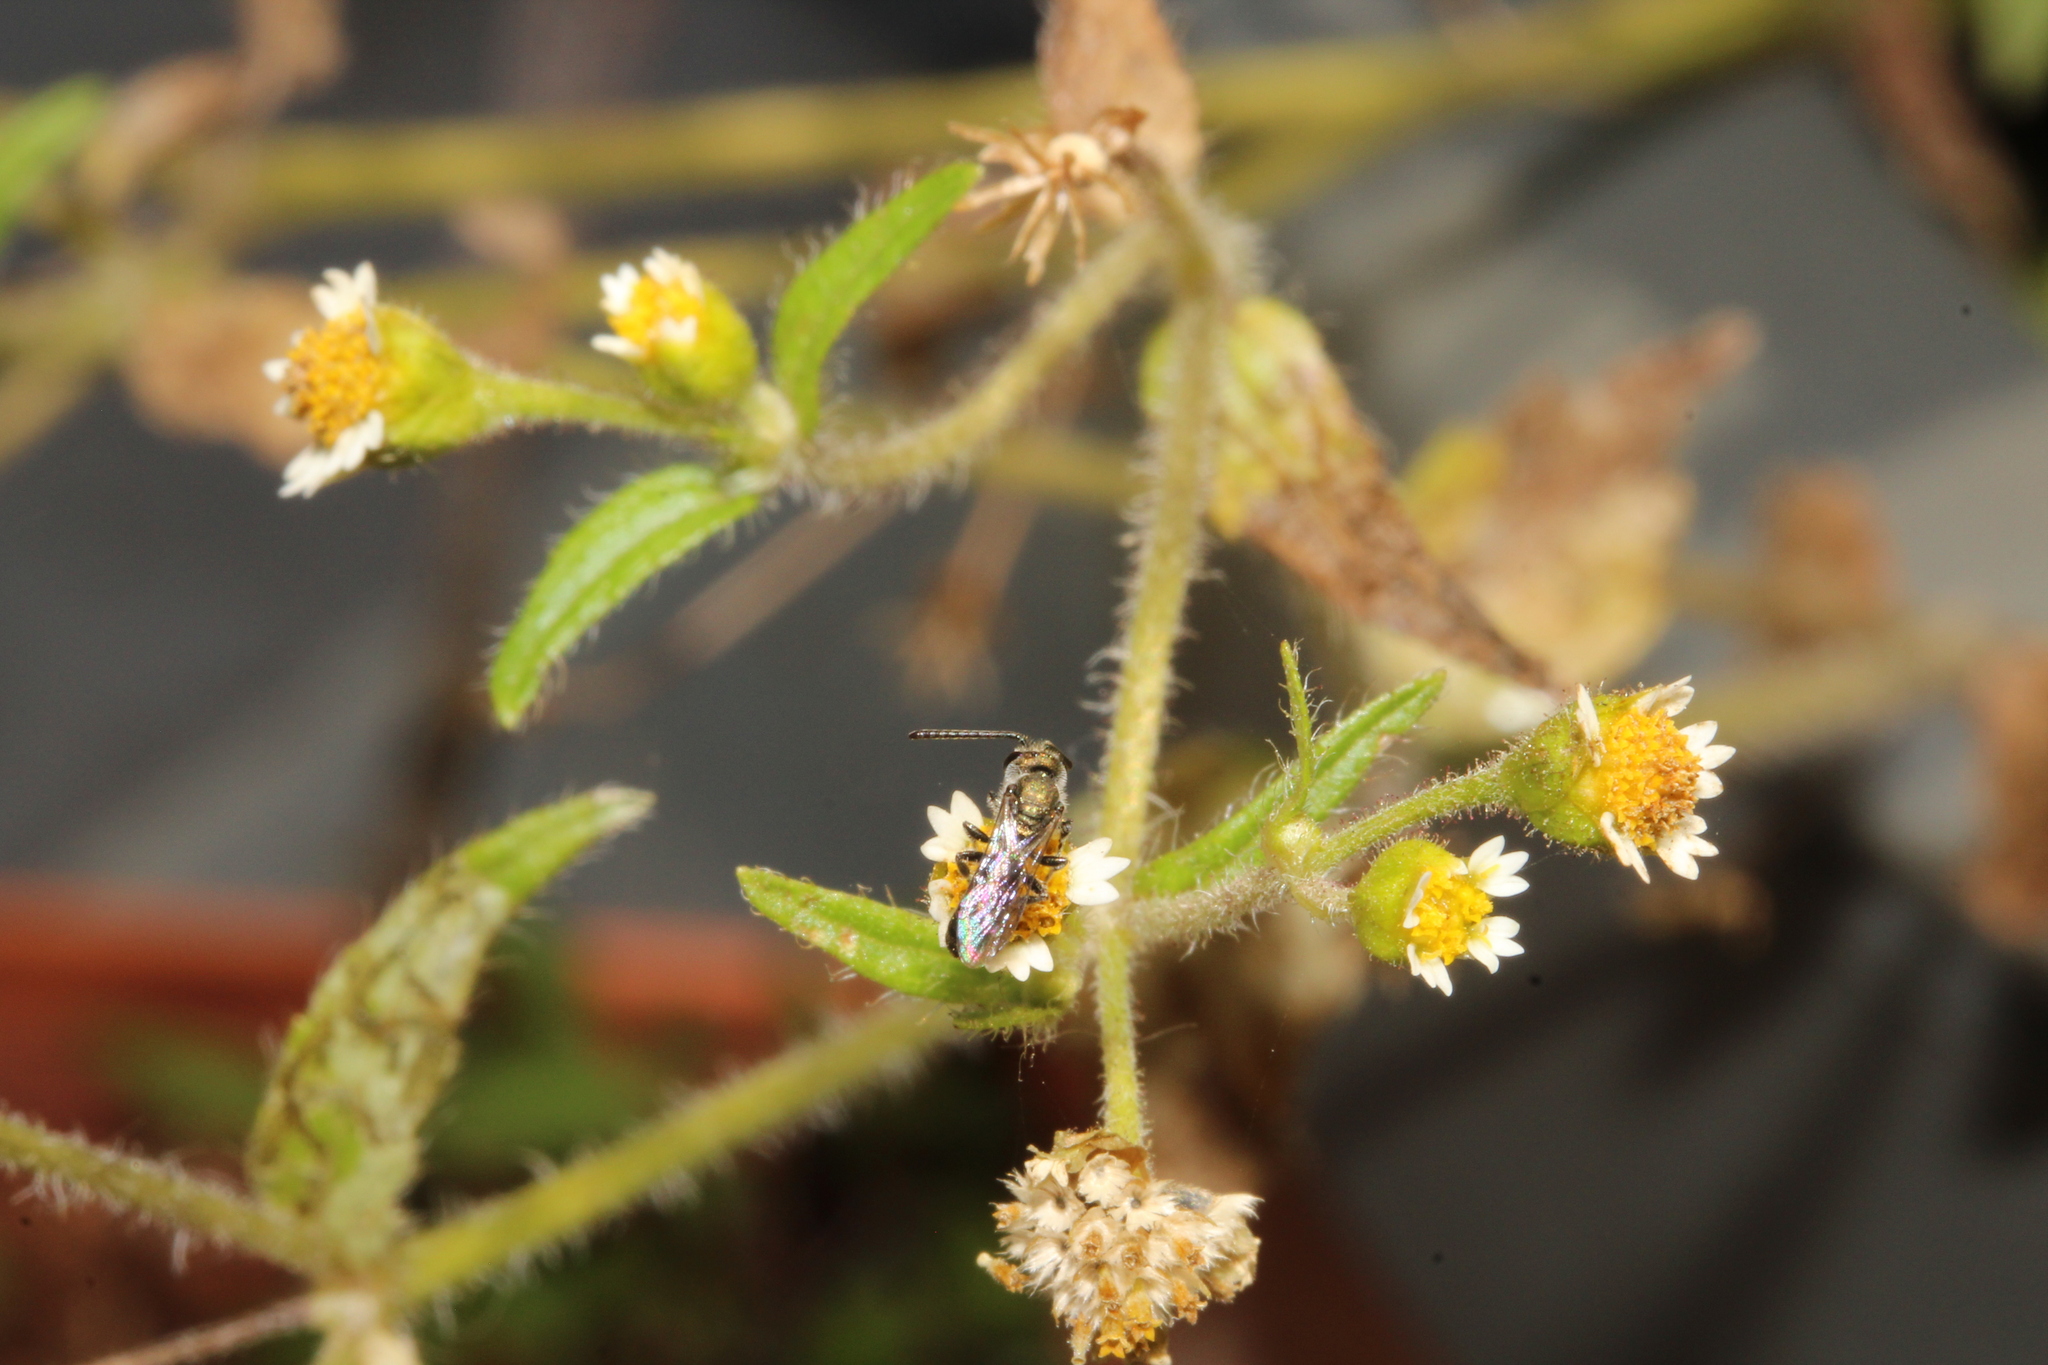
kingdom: Animalia
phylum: Arthropoda
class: Insecta
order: Hymenoptera
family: Halictidae
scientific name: Halictidae
